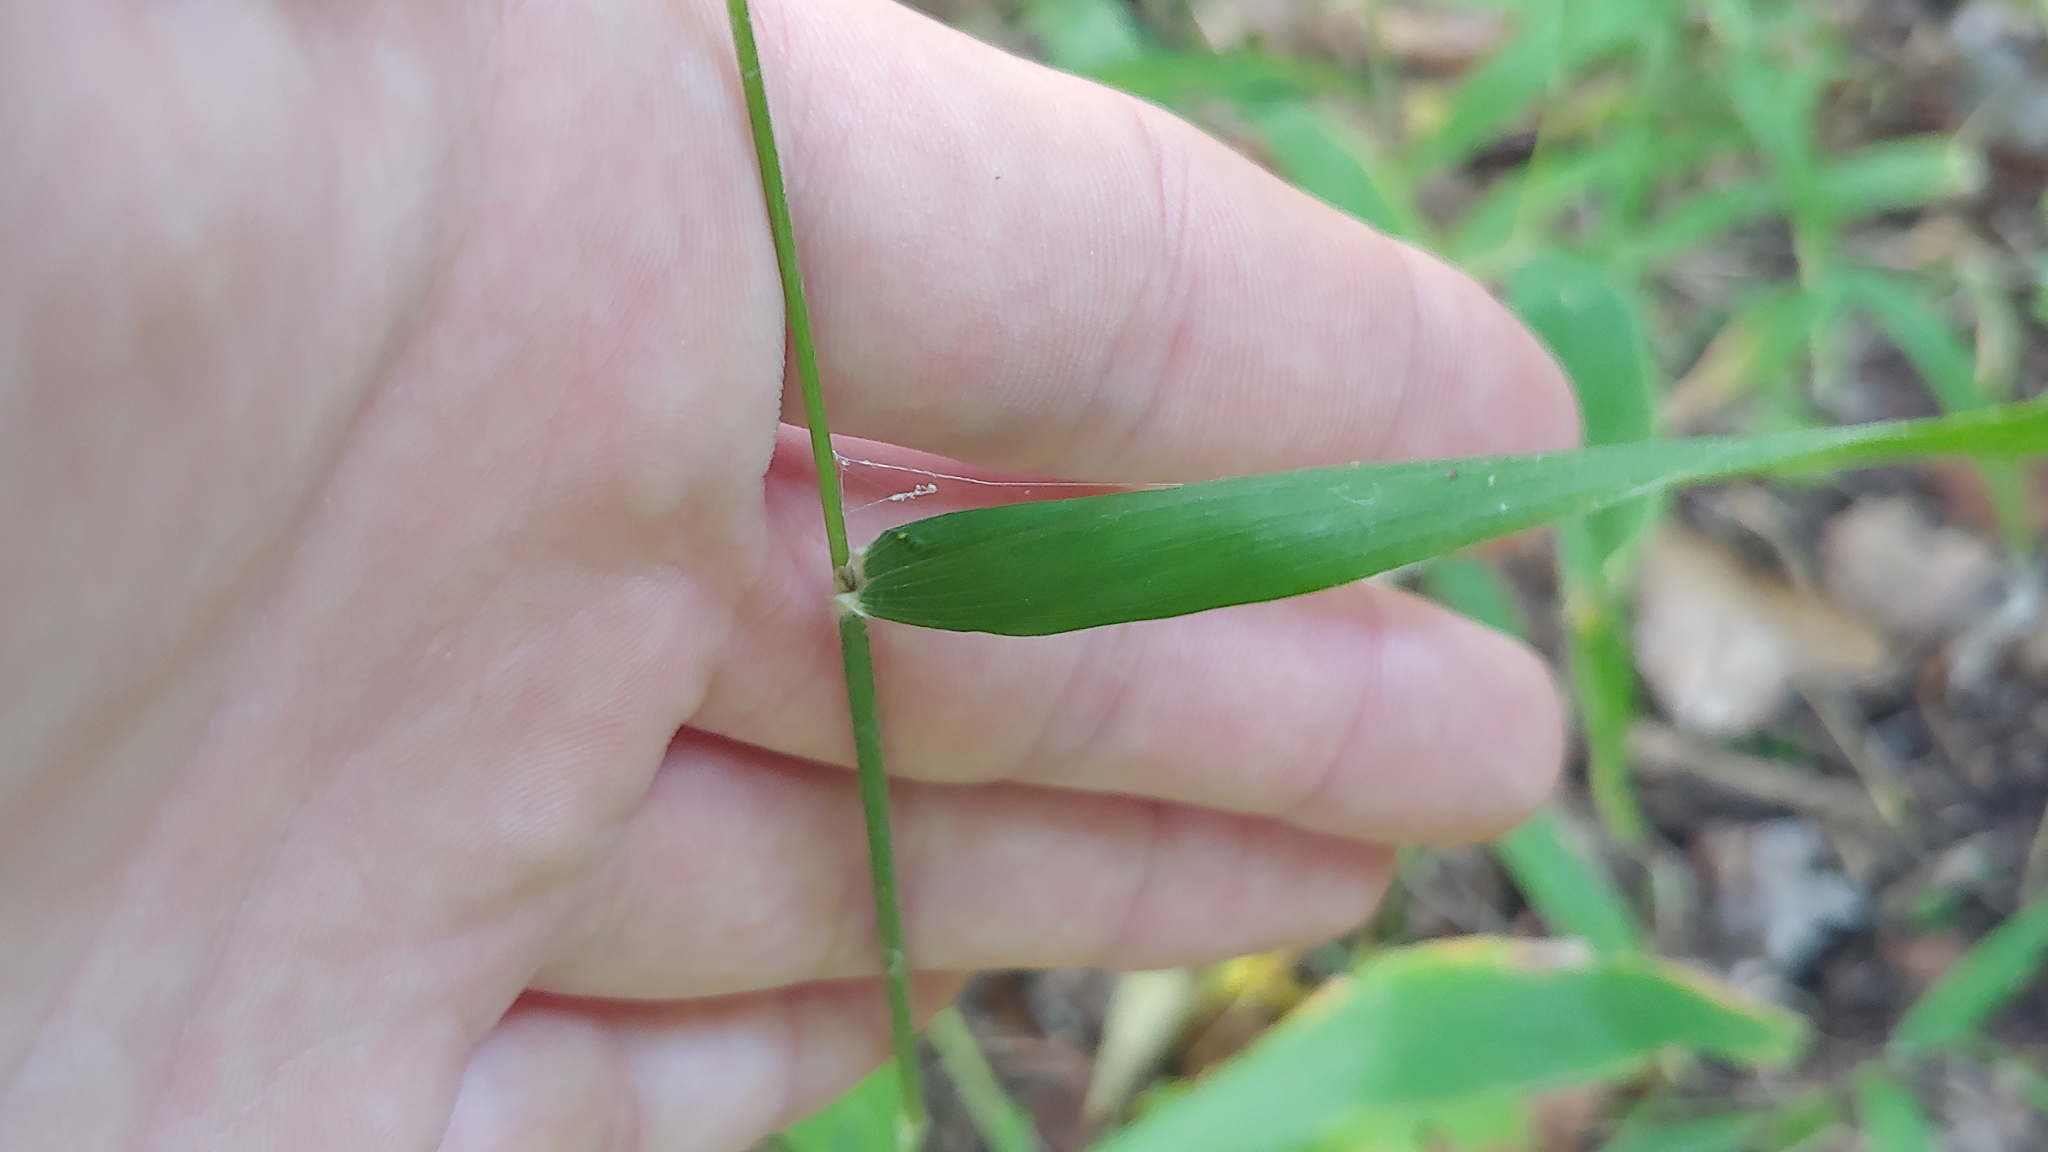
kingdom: Plantae
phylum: Tracheophyta
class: Liliopsida
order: Poales
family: Poaceae
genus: Brachyelytrum
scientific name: Brachyelytrum erectum
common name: Bearded shorthusk
